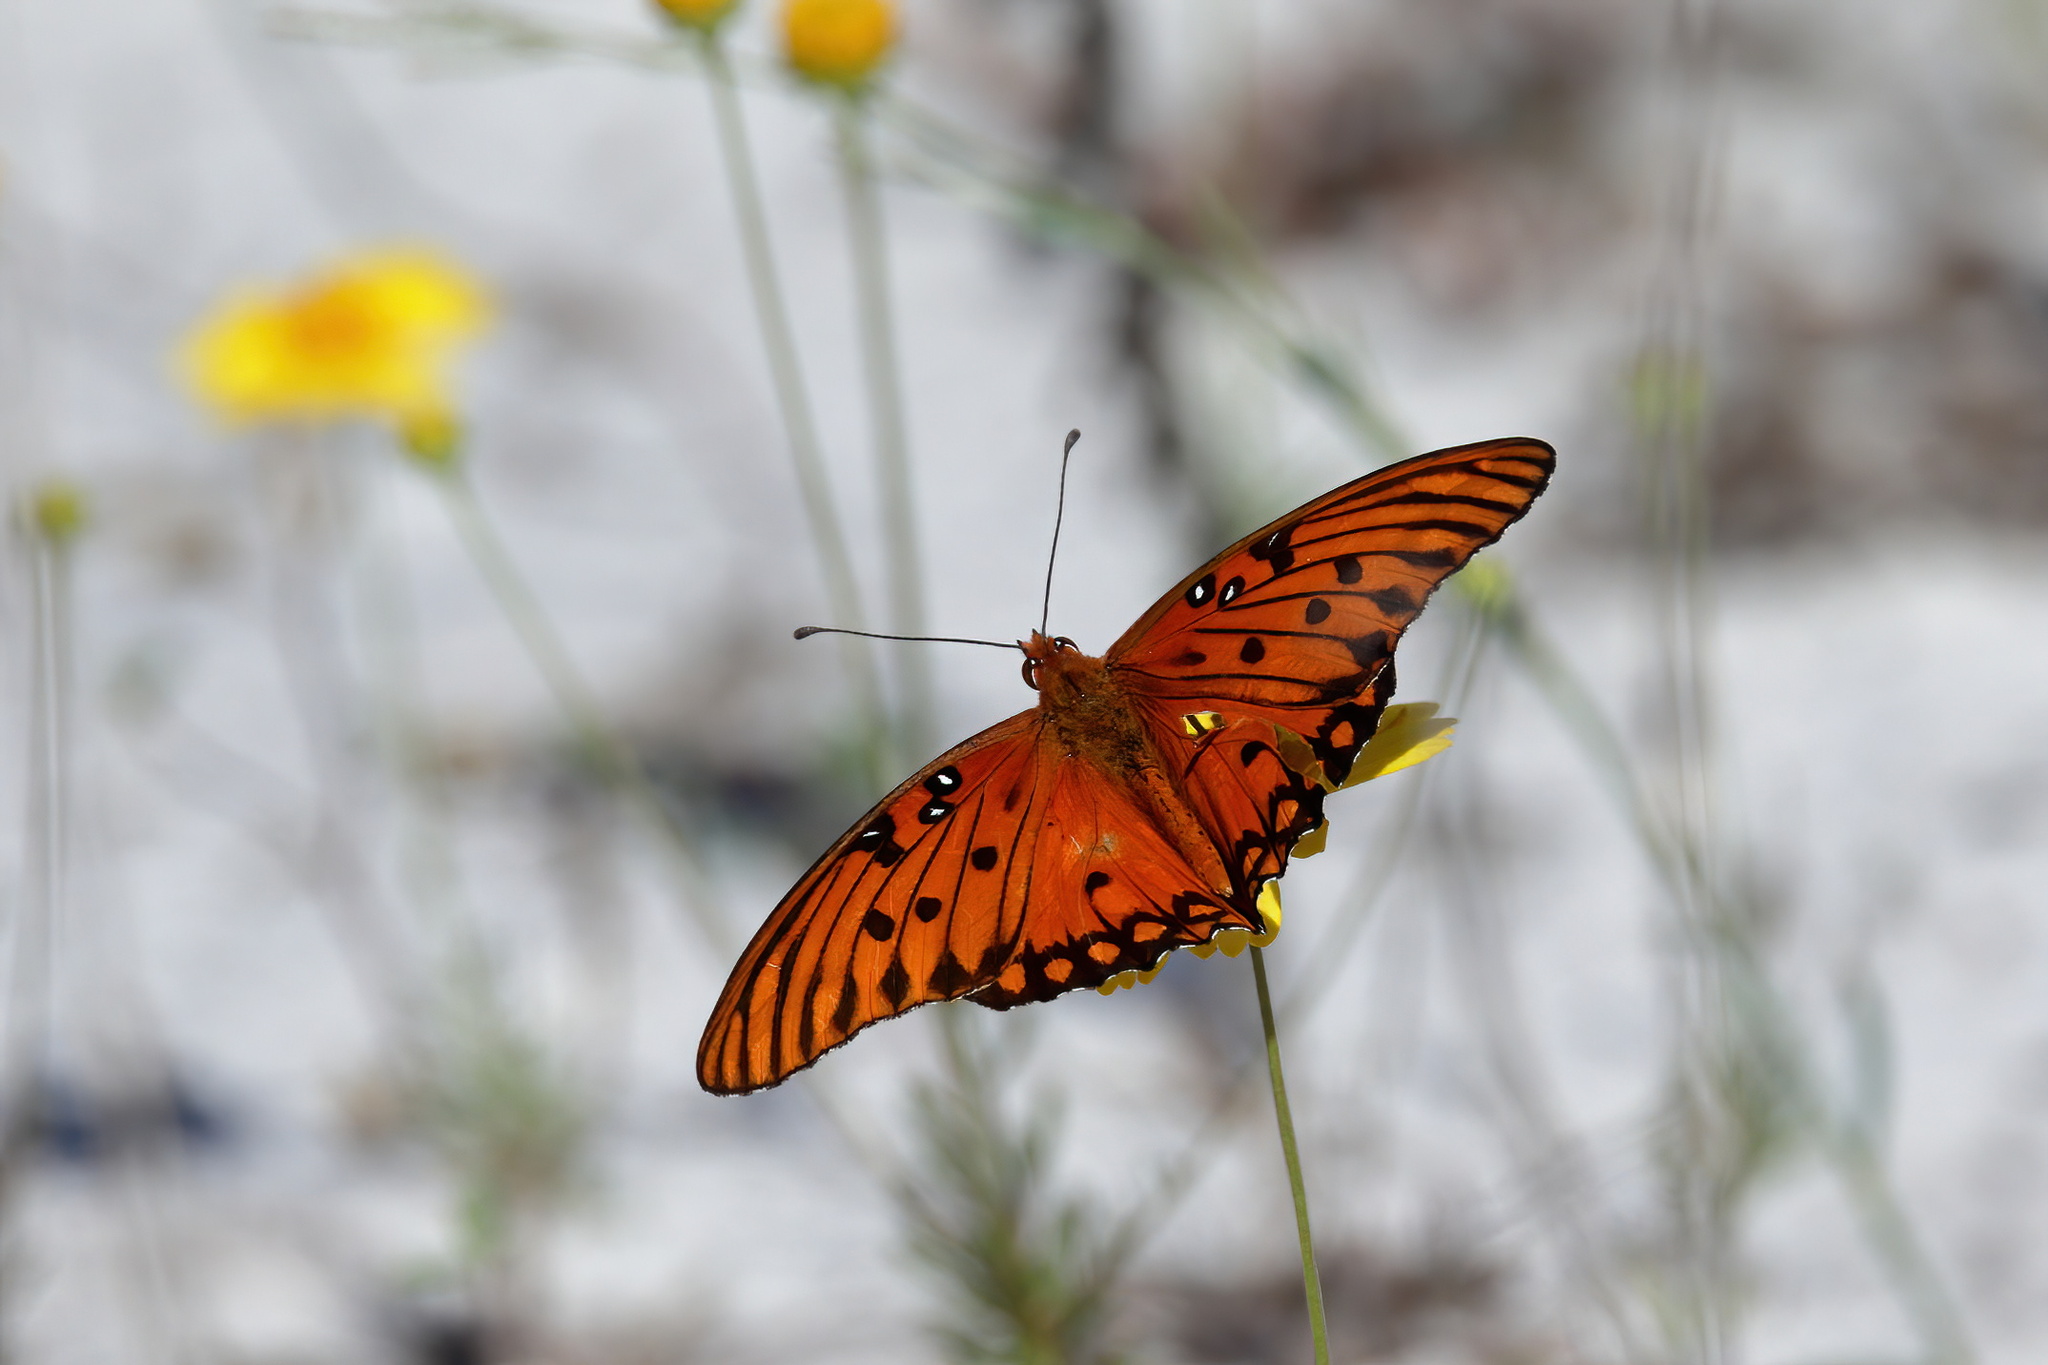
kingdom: Animalia
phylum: Arthropoda
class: Insecta
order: Lepidoptera
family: Nymphalidae
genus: Dione
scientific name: Dione vanillae
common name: Gulf fritillary
